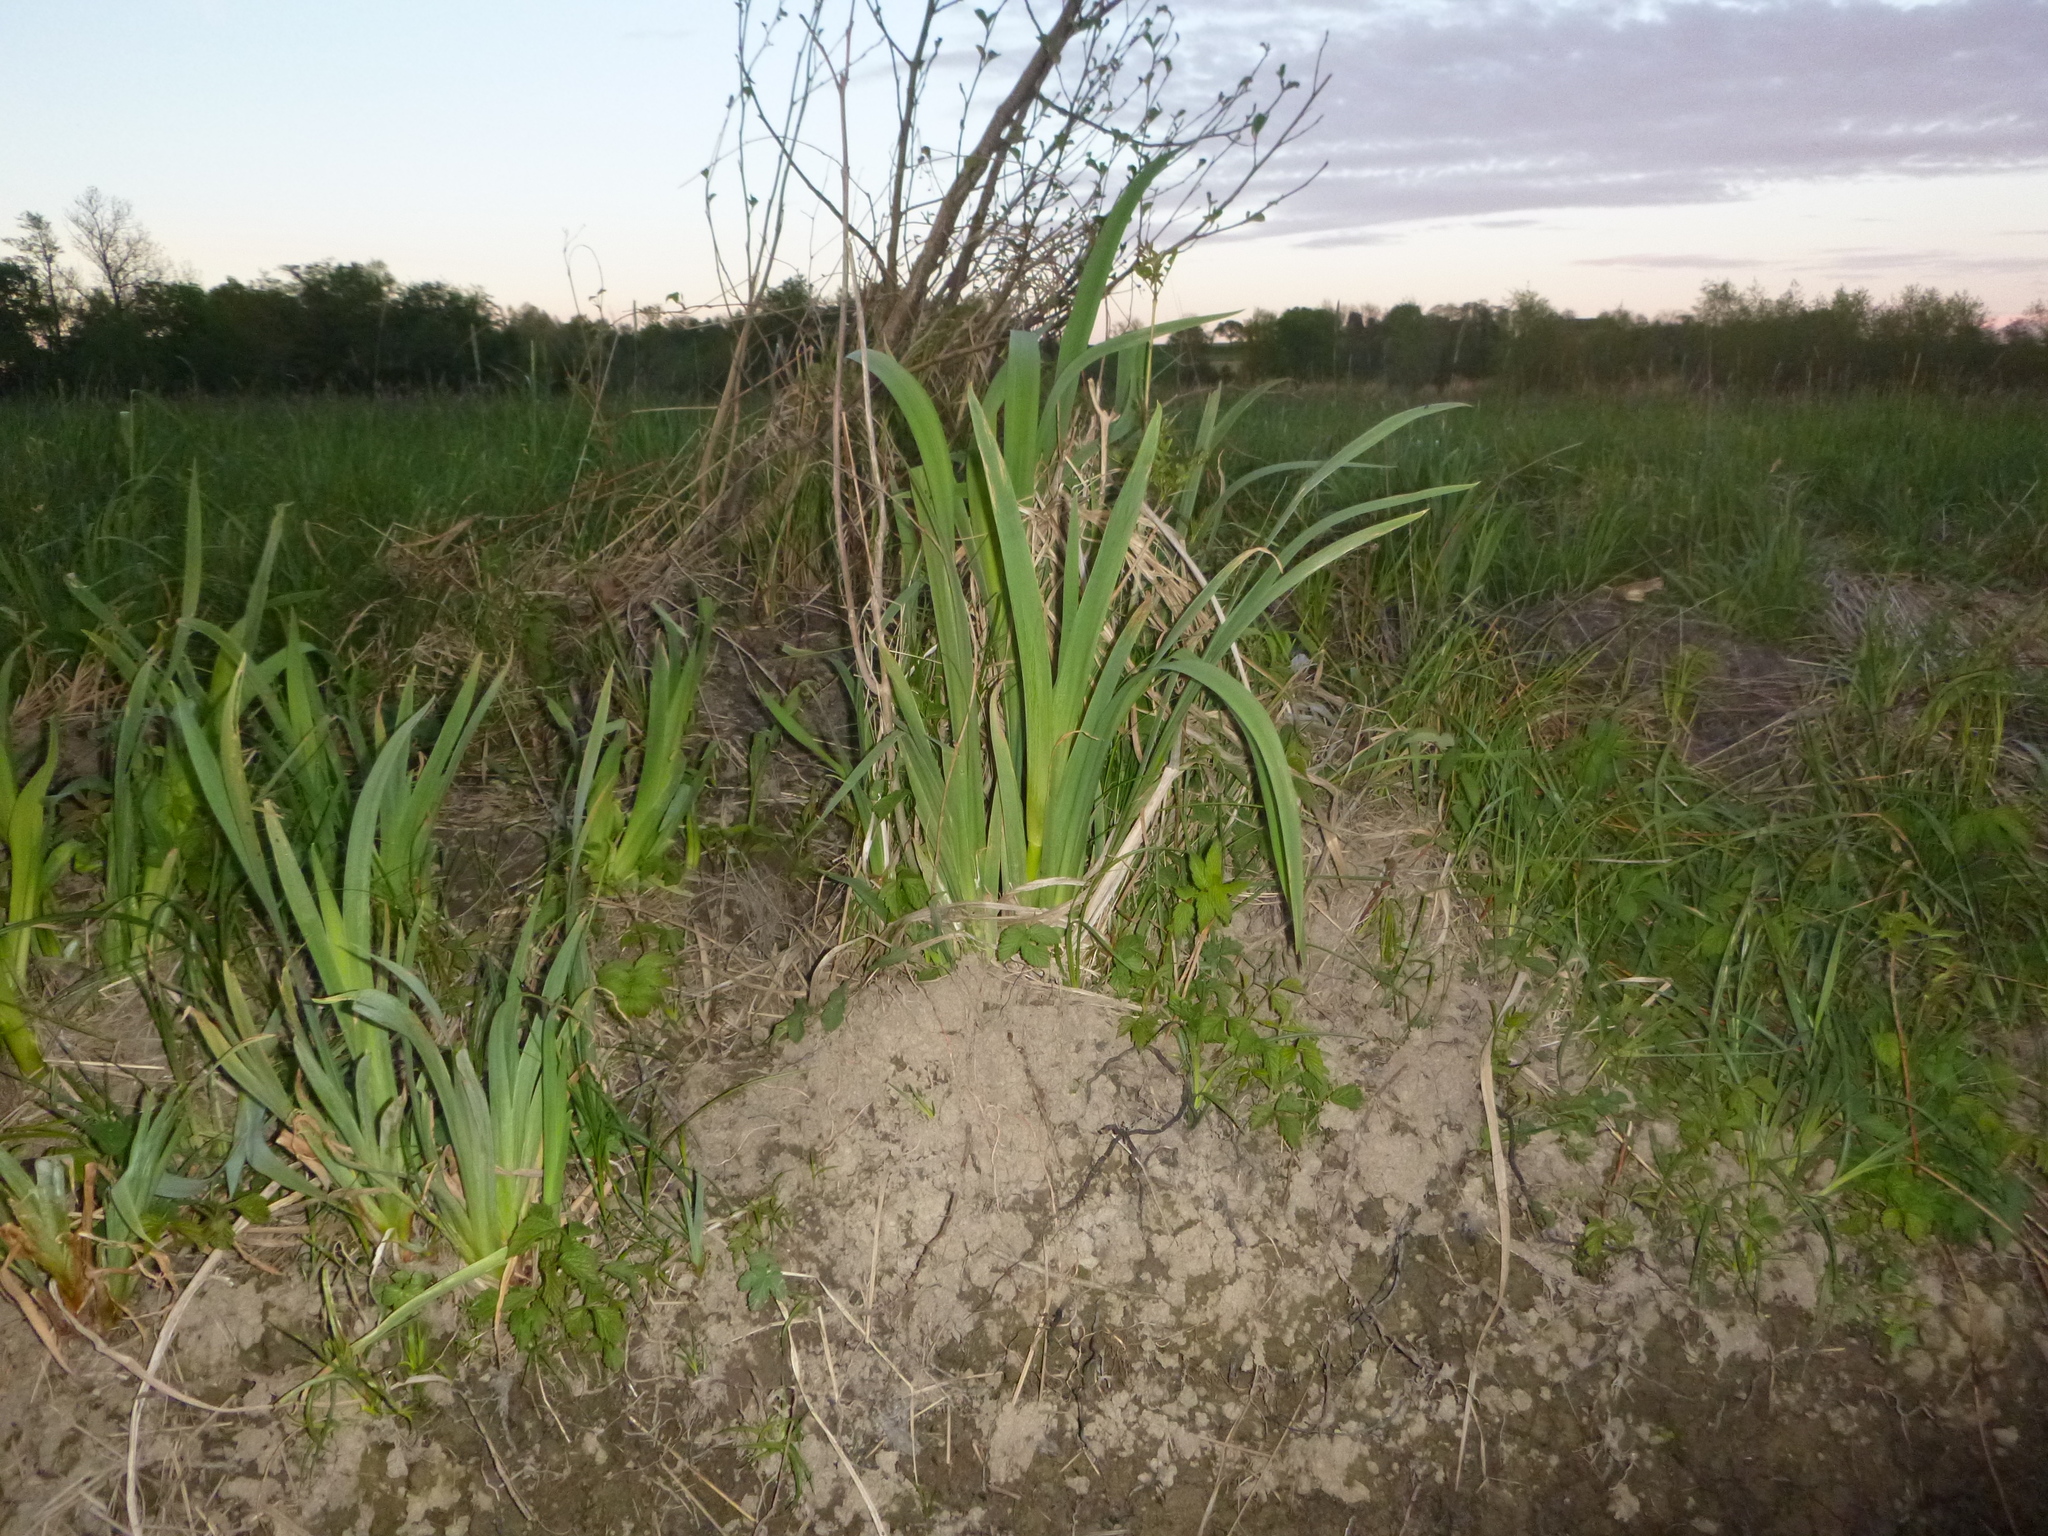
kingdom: Plantae
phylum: Tracheophyta
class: Liliopsida
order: Asparagales
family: Iridaceae
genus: Iris
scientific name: Iris pseudacorus
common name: Yellow flag
